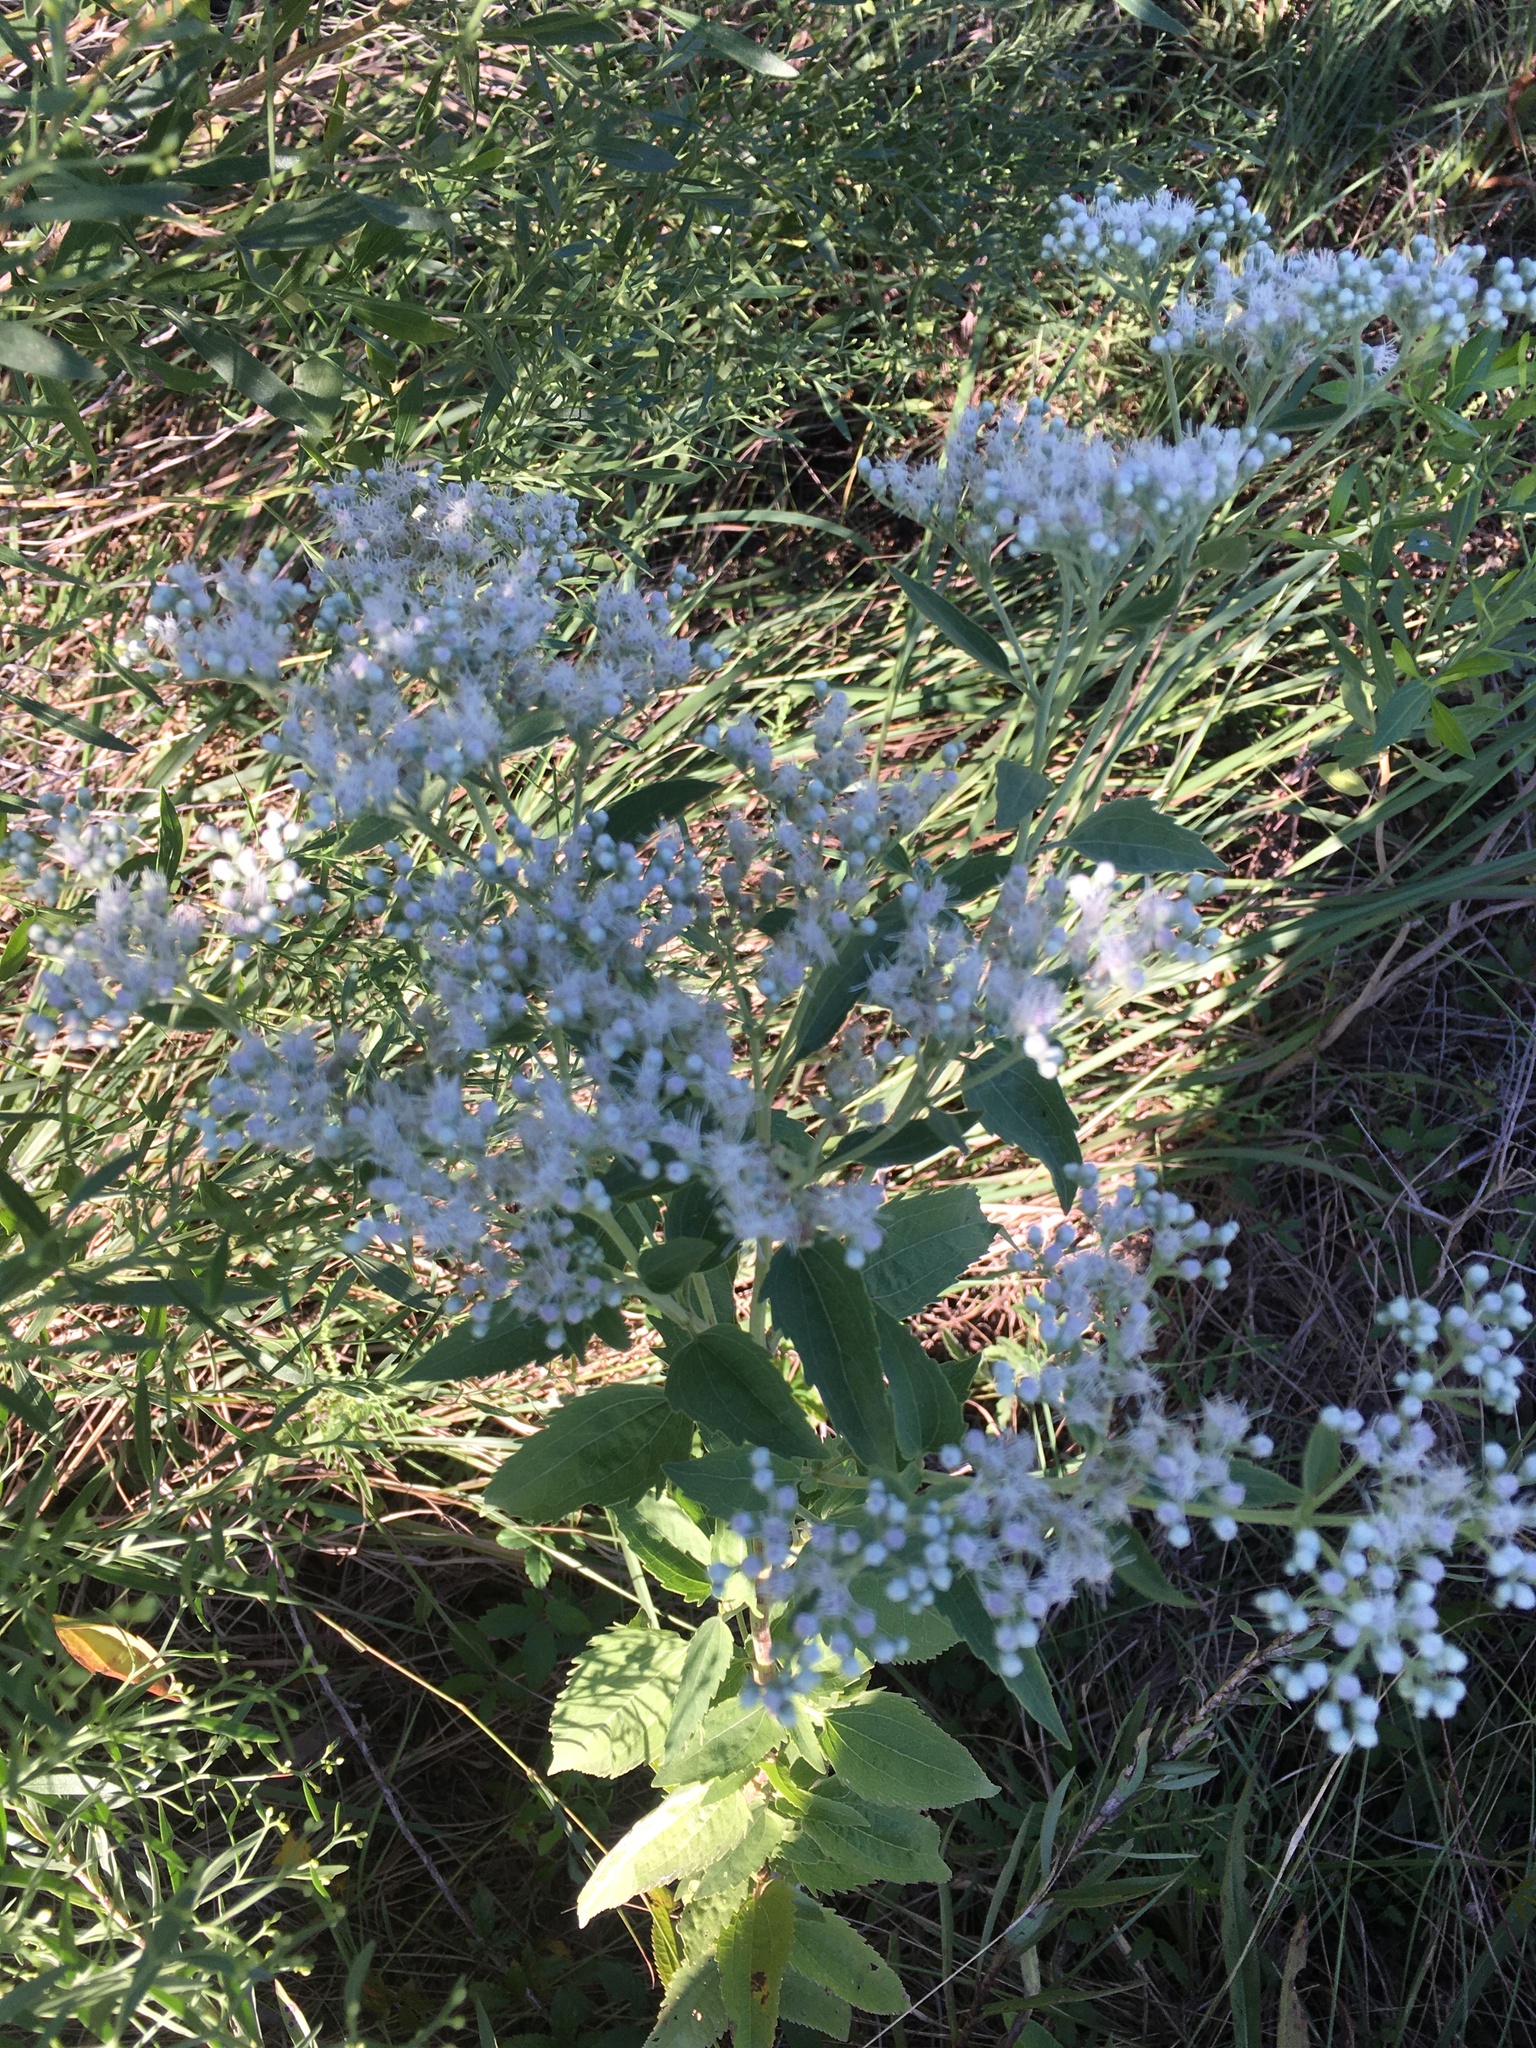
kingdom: Plantae
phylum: Tracheophyta
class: Magnoliopsida
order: Asterales
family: Asteraceae
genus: Eupatorium
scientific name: Eupatorium serotinum
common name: Late boneset
